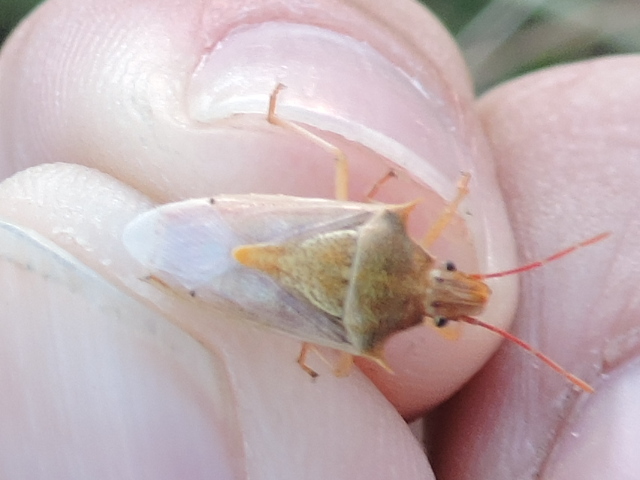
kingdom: Animalia
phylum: Arthropoda
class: Insecta
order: Hemiptera
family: Pentatomidae
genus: Oebalus
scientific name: Oebalus pugnax
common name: Rice stink bug
